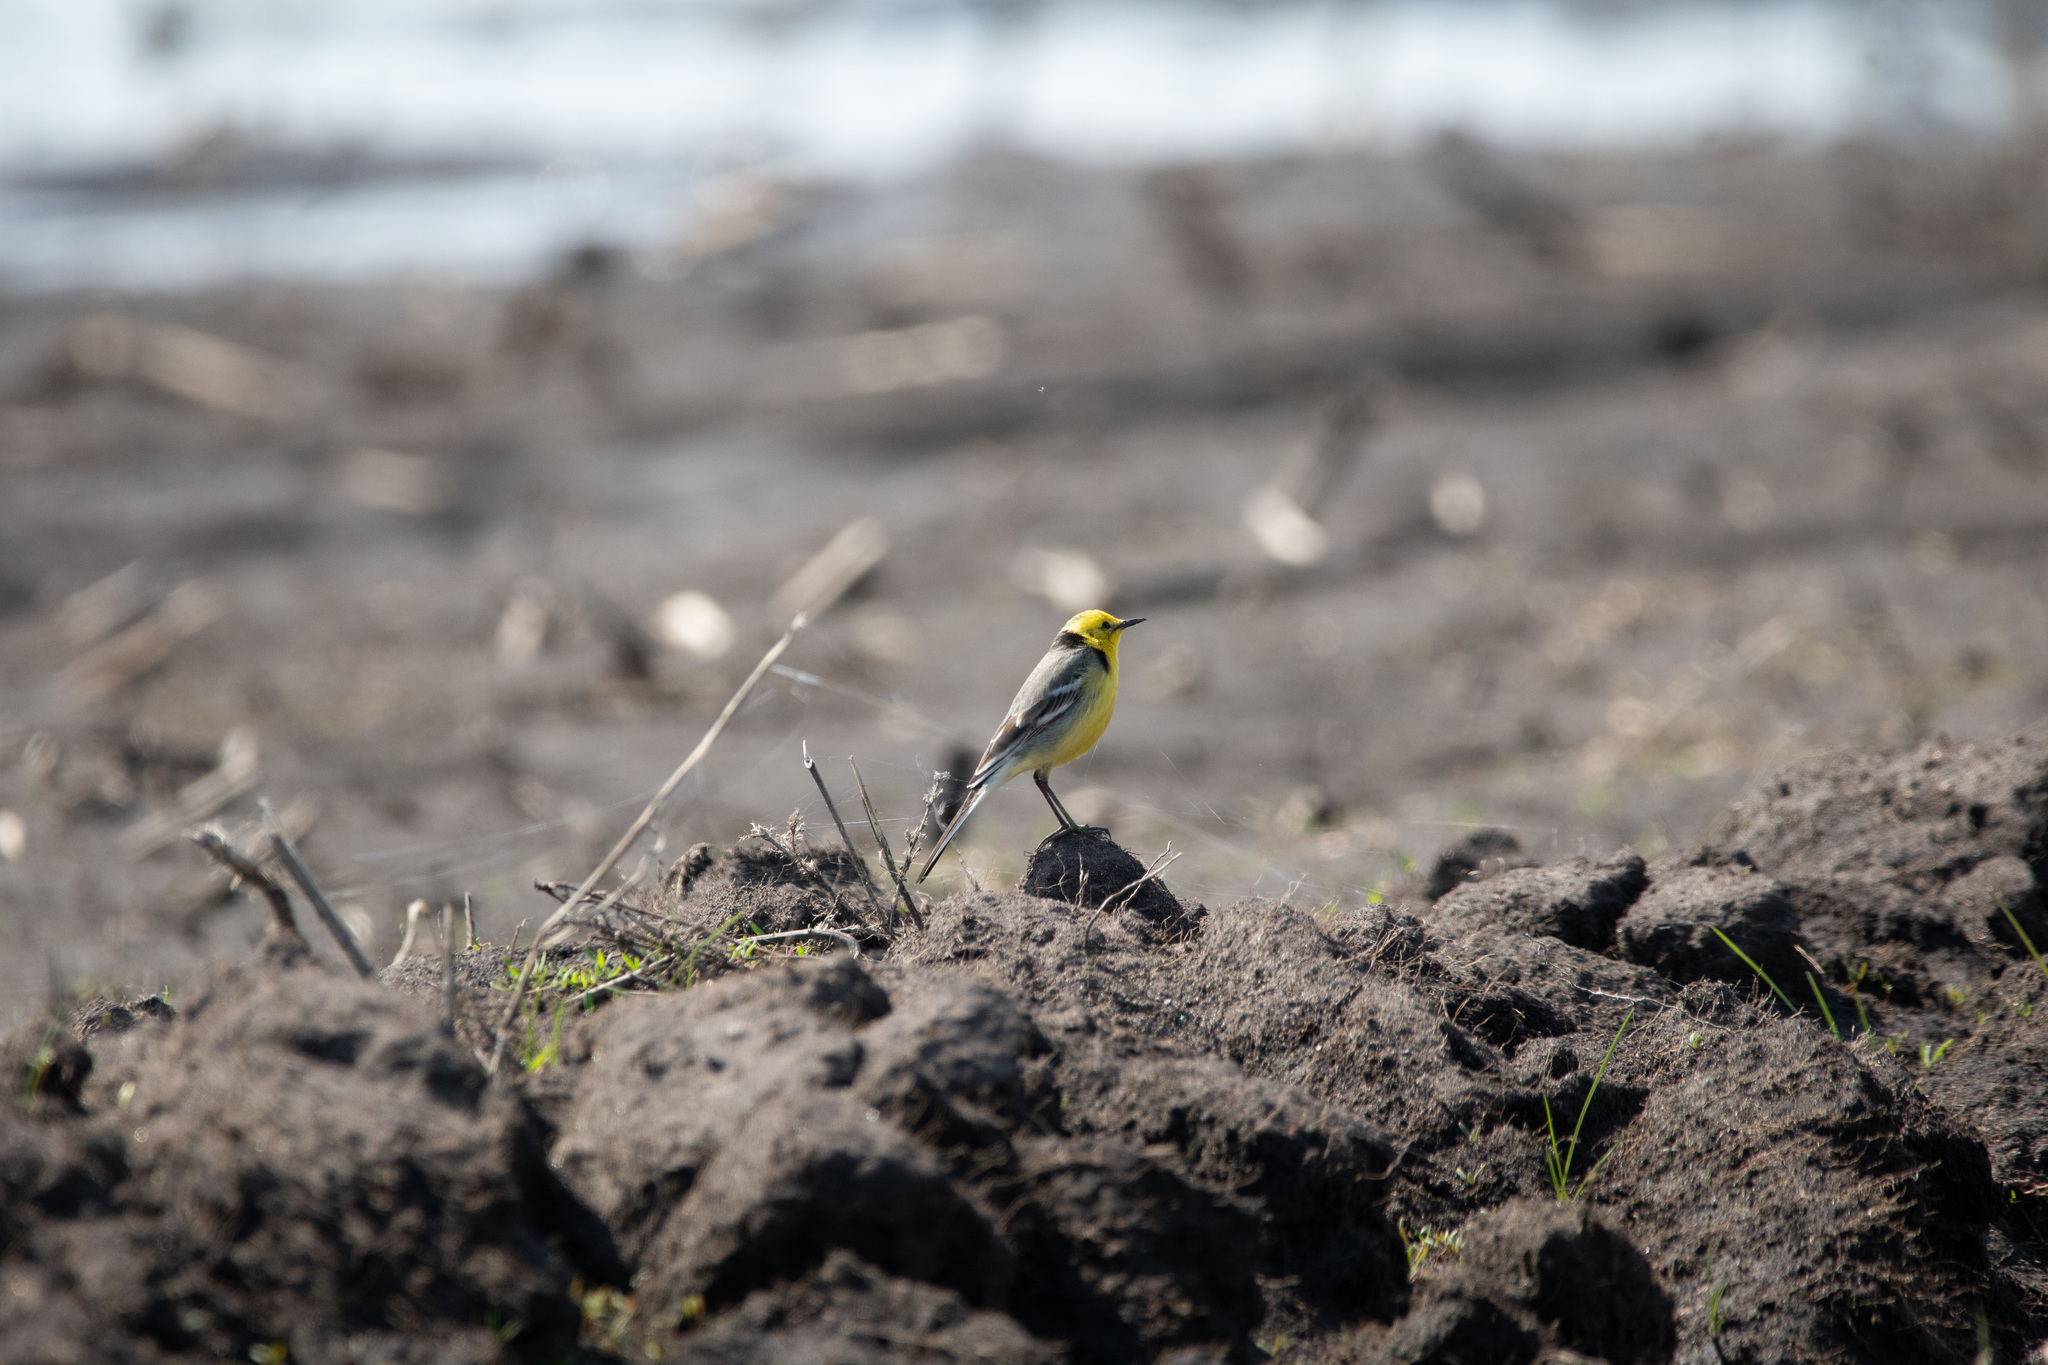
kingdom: Animalia
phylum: Chordata
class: Aves
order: Passeriformes
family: Motacillidae
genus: Motacilla
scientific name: Motacilla citreola
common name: Citrine wagtail
